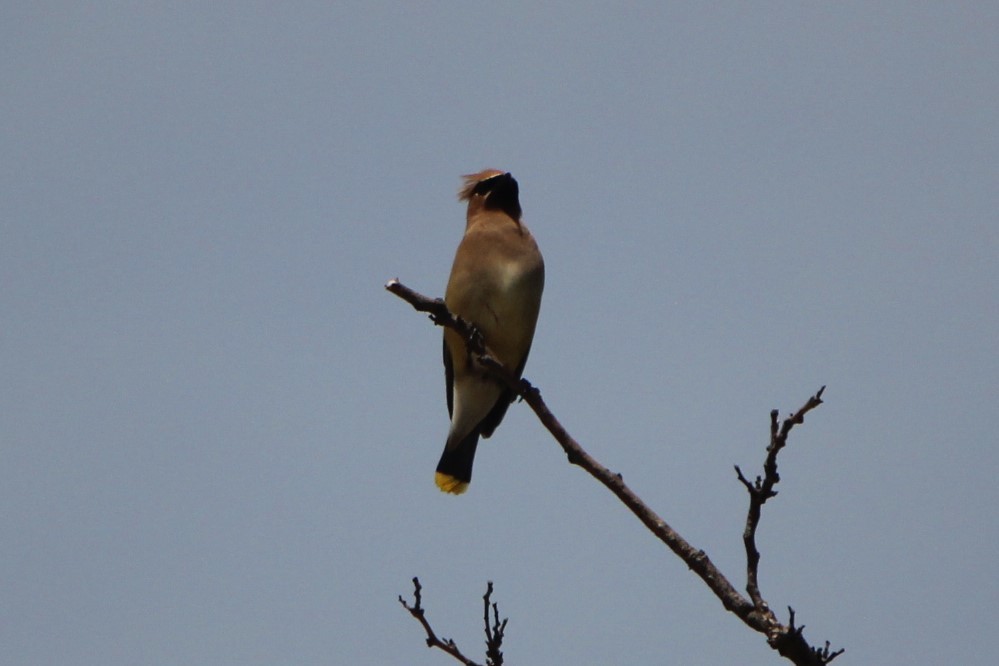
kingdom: Animalia
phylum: Chordata
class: Aves
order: Passeriformes
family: Bombycillidae
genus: Bombycilla
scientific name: Bombycilla cedrorum
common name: Cedar waxwing
